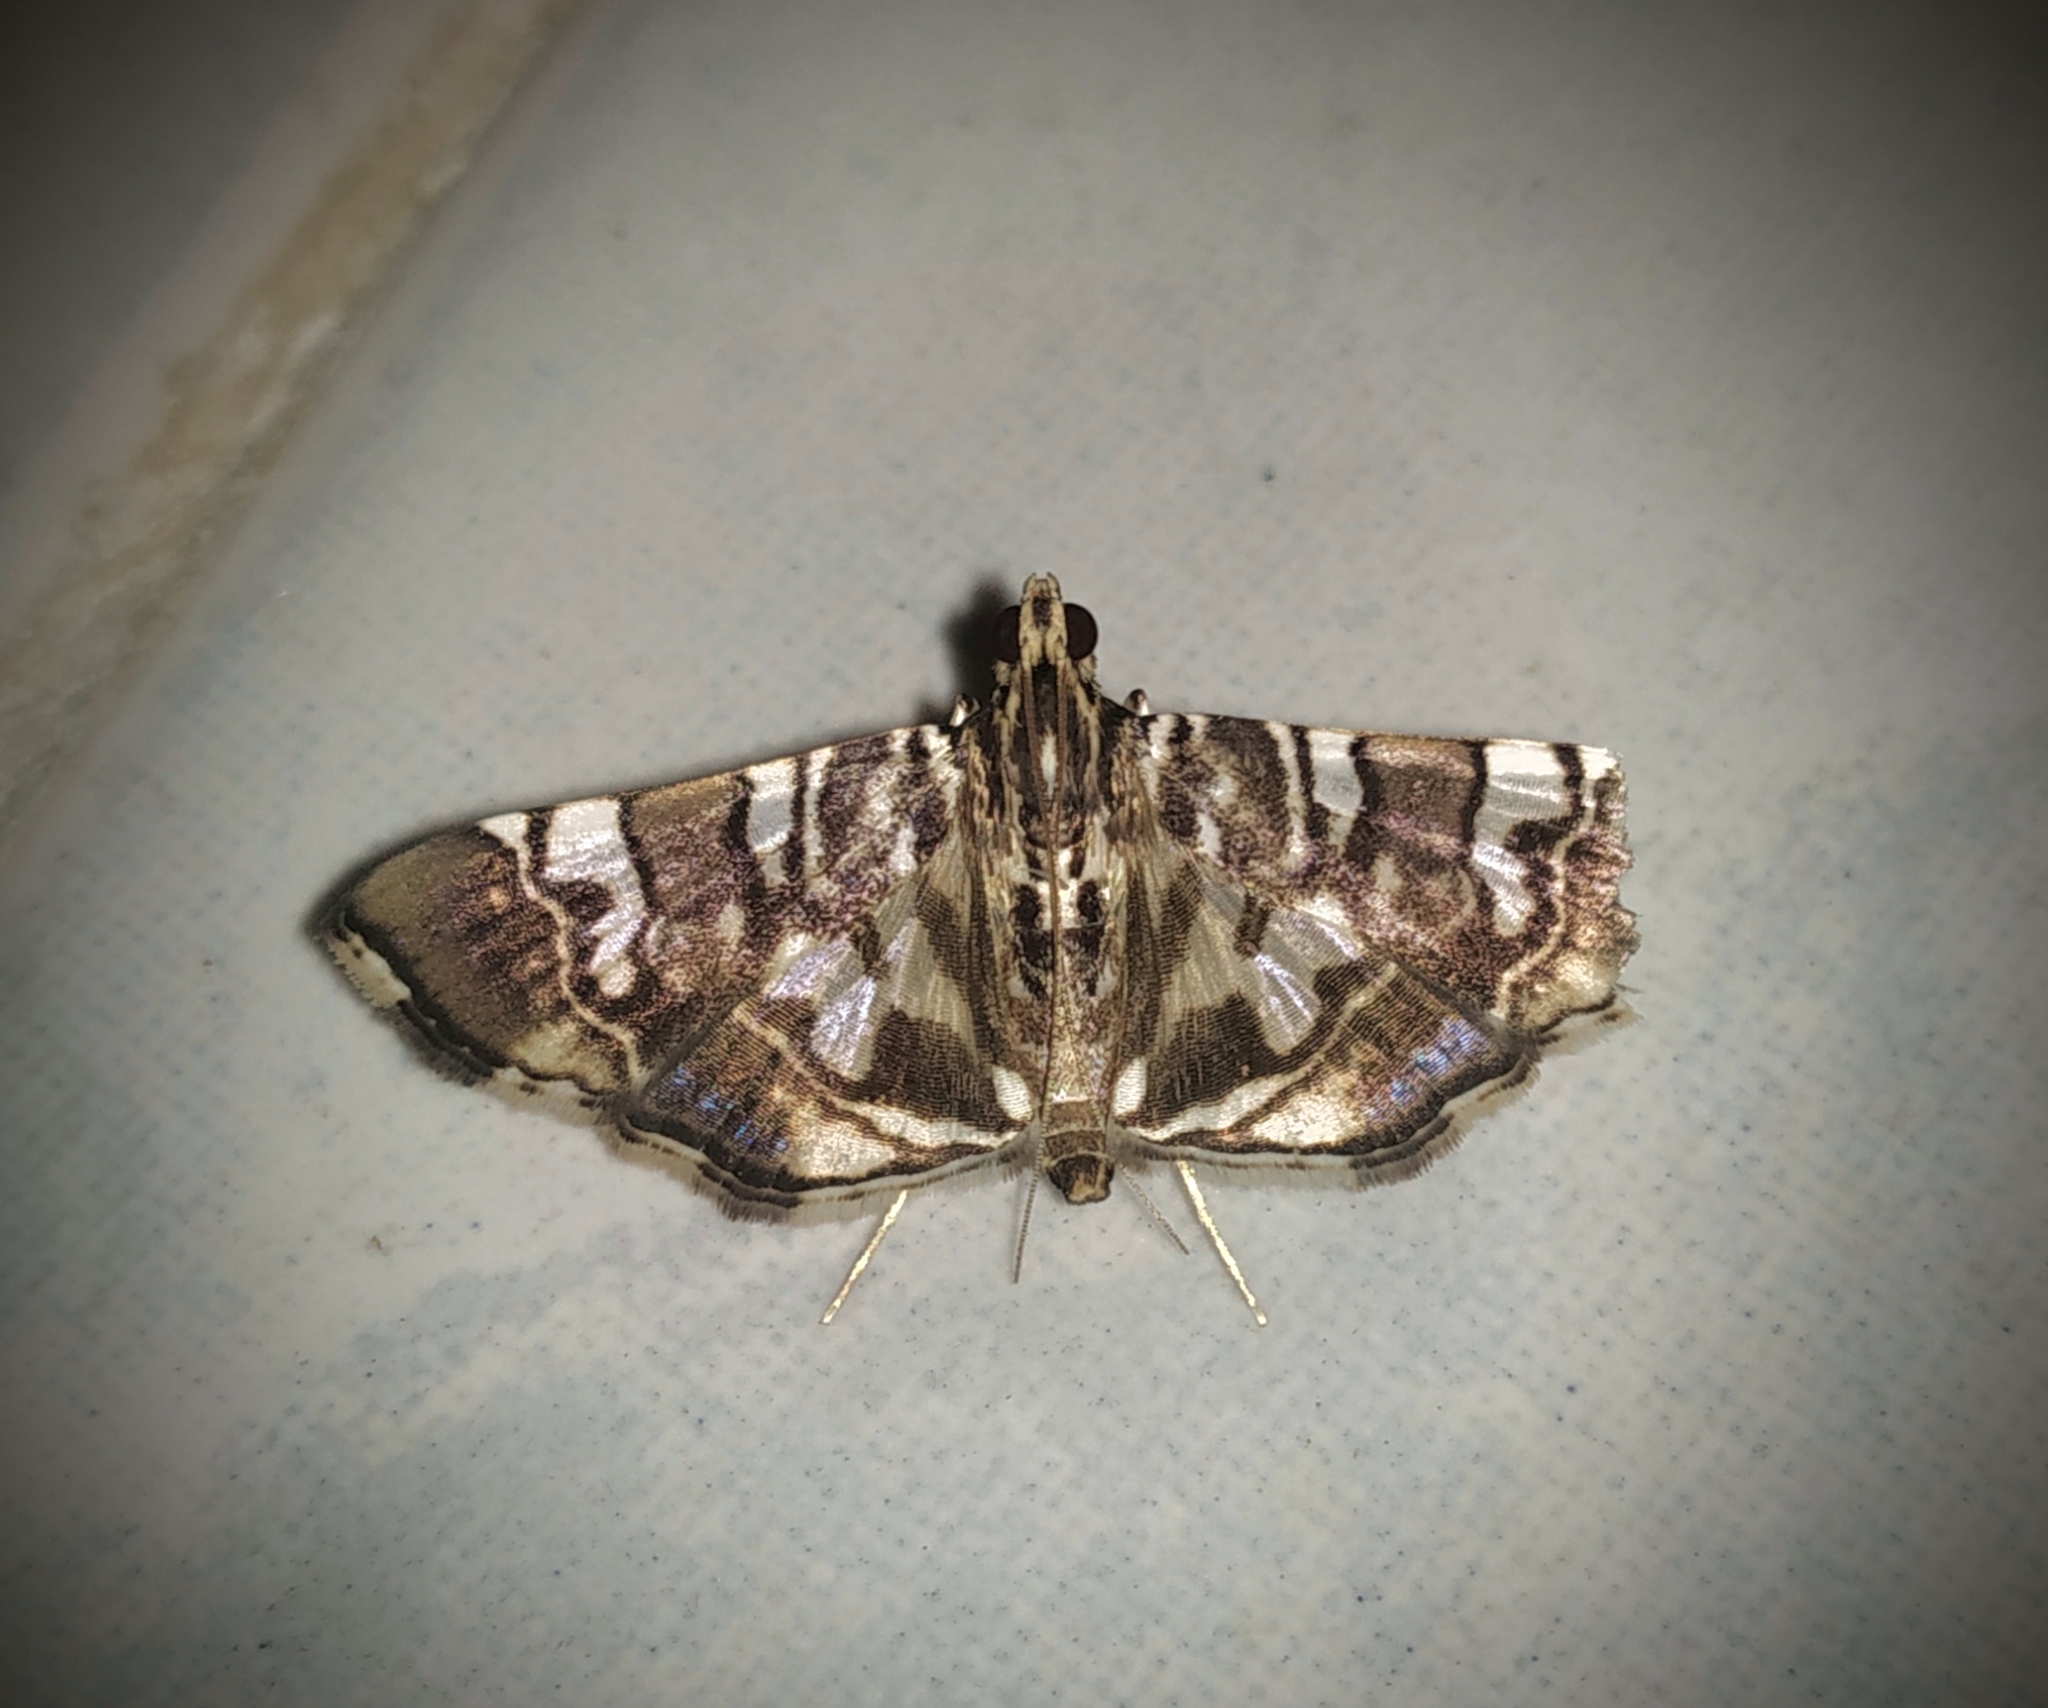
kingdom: Animalia
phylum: Arthropoda
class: Insecta
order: Lepidoptera
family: Crambidae
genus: Chabula
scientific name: Chabula acamasalis
